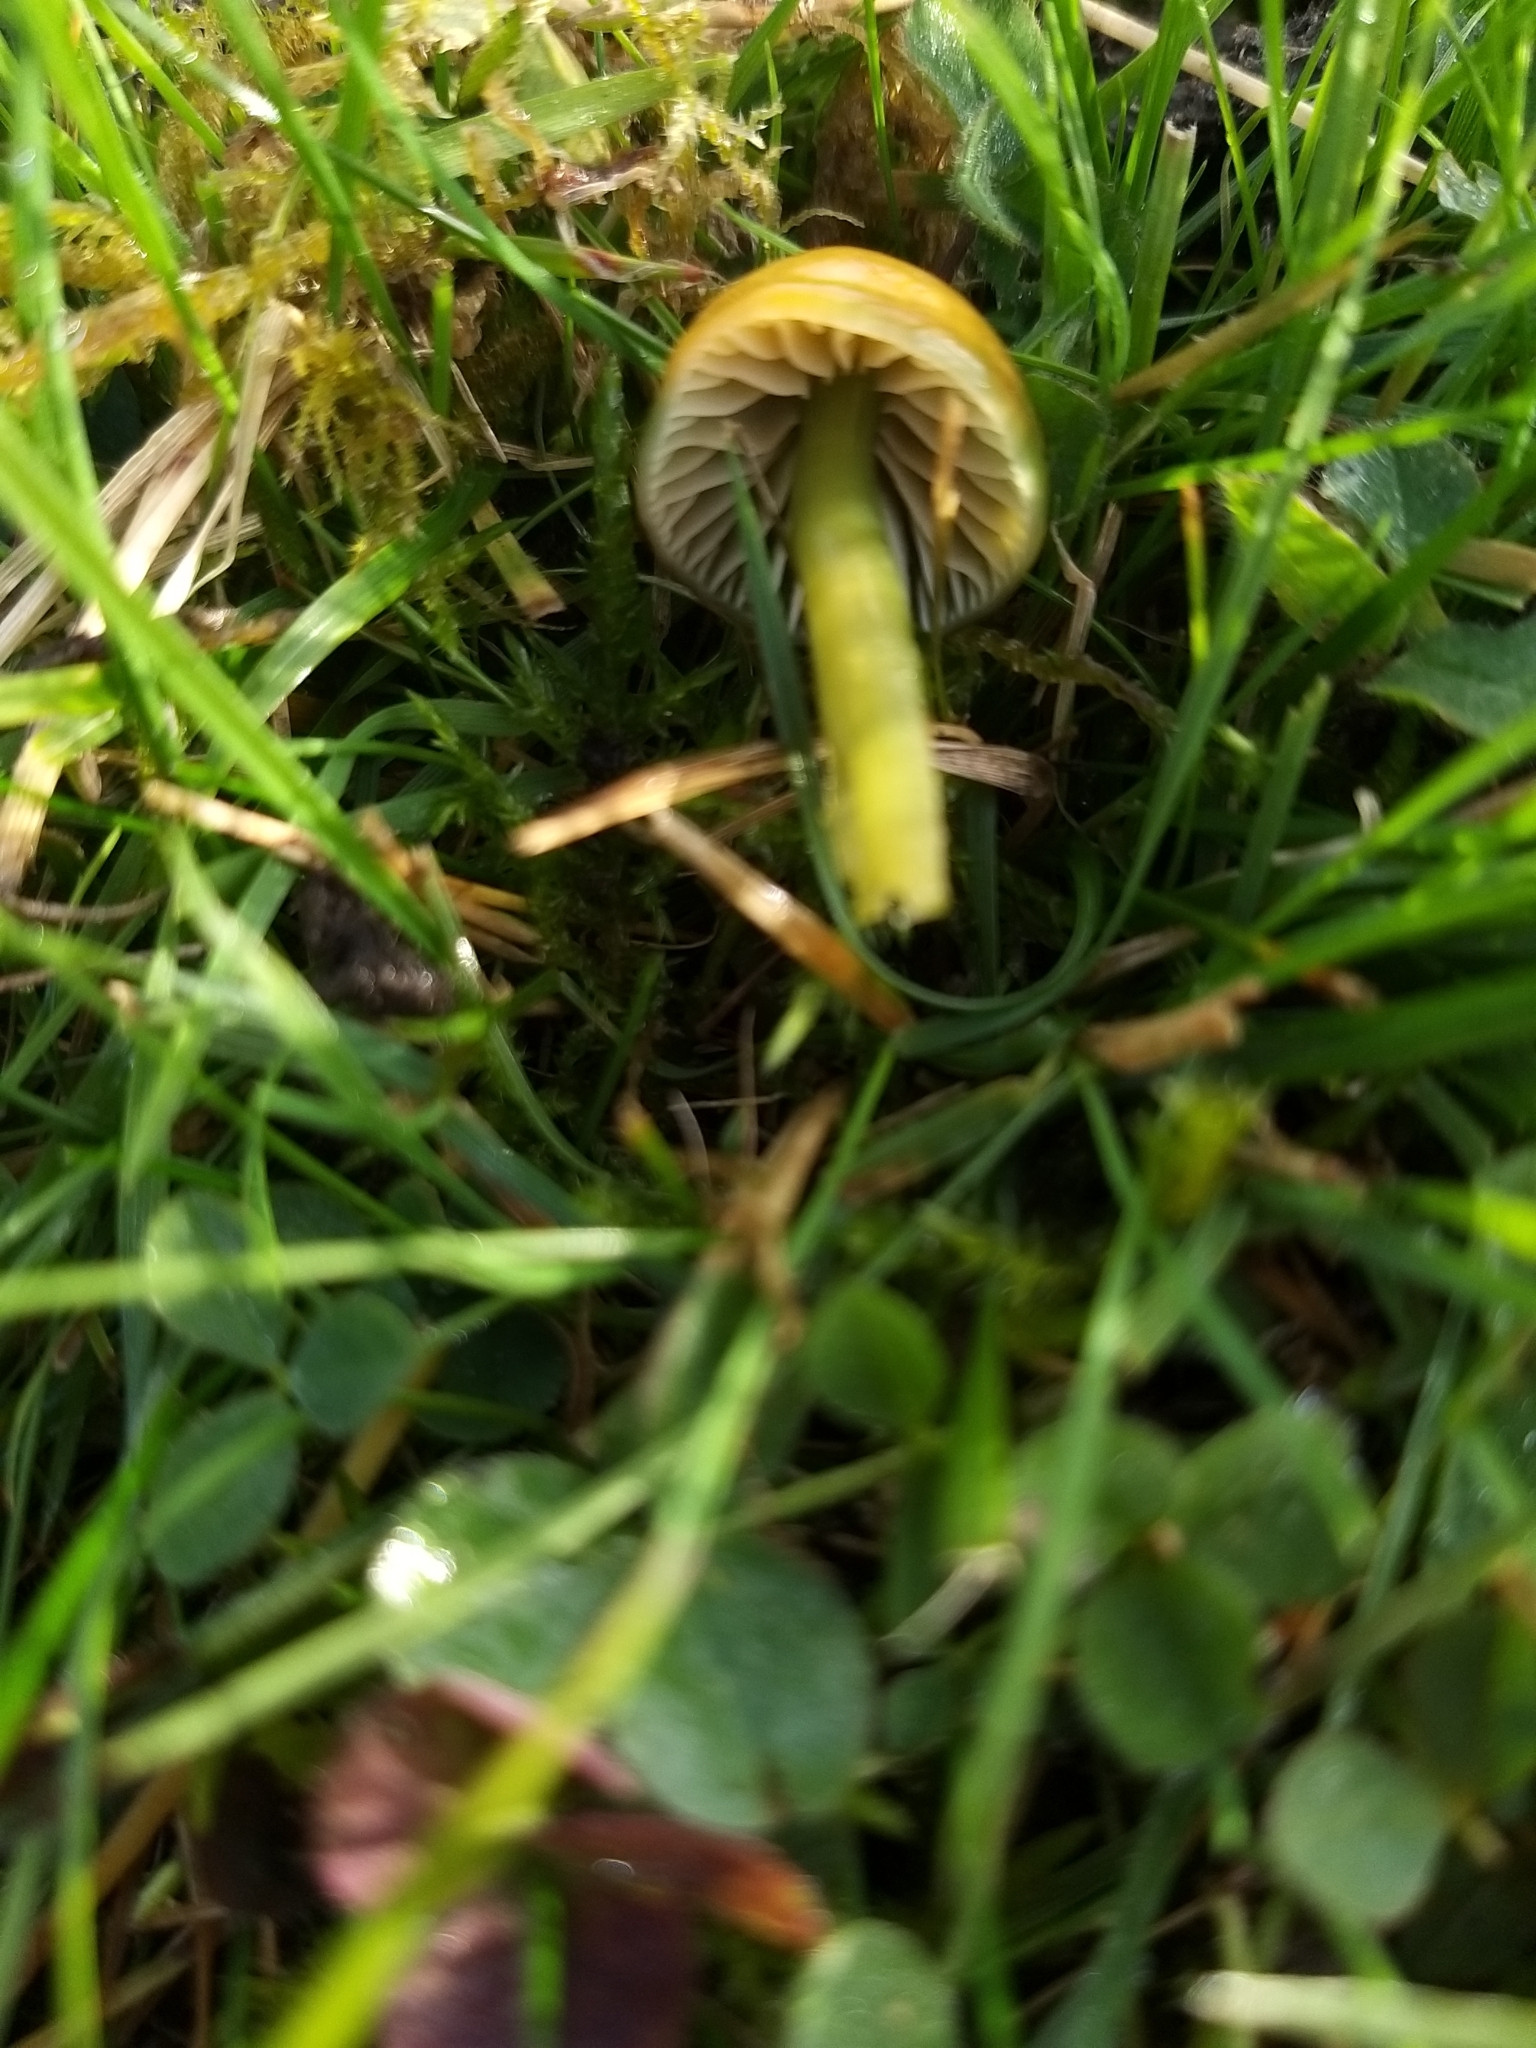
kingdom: Fungi
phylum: Basidiomycota
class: Agaricomycetes
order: Agaricales
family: Hygrophoraceae
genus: Gliophorus
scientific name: Gliophorus psittacinus
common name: Parrot wax-cap
